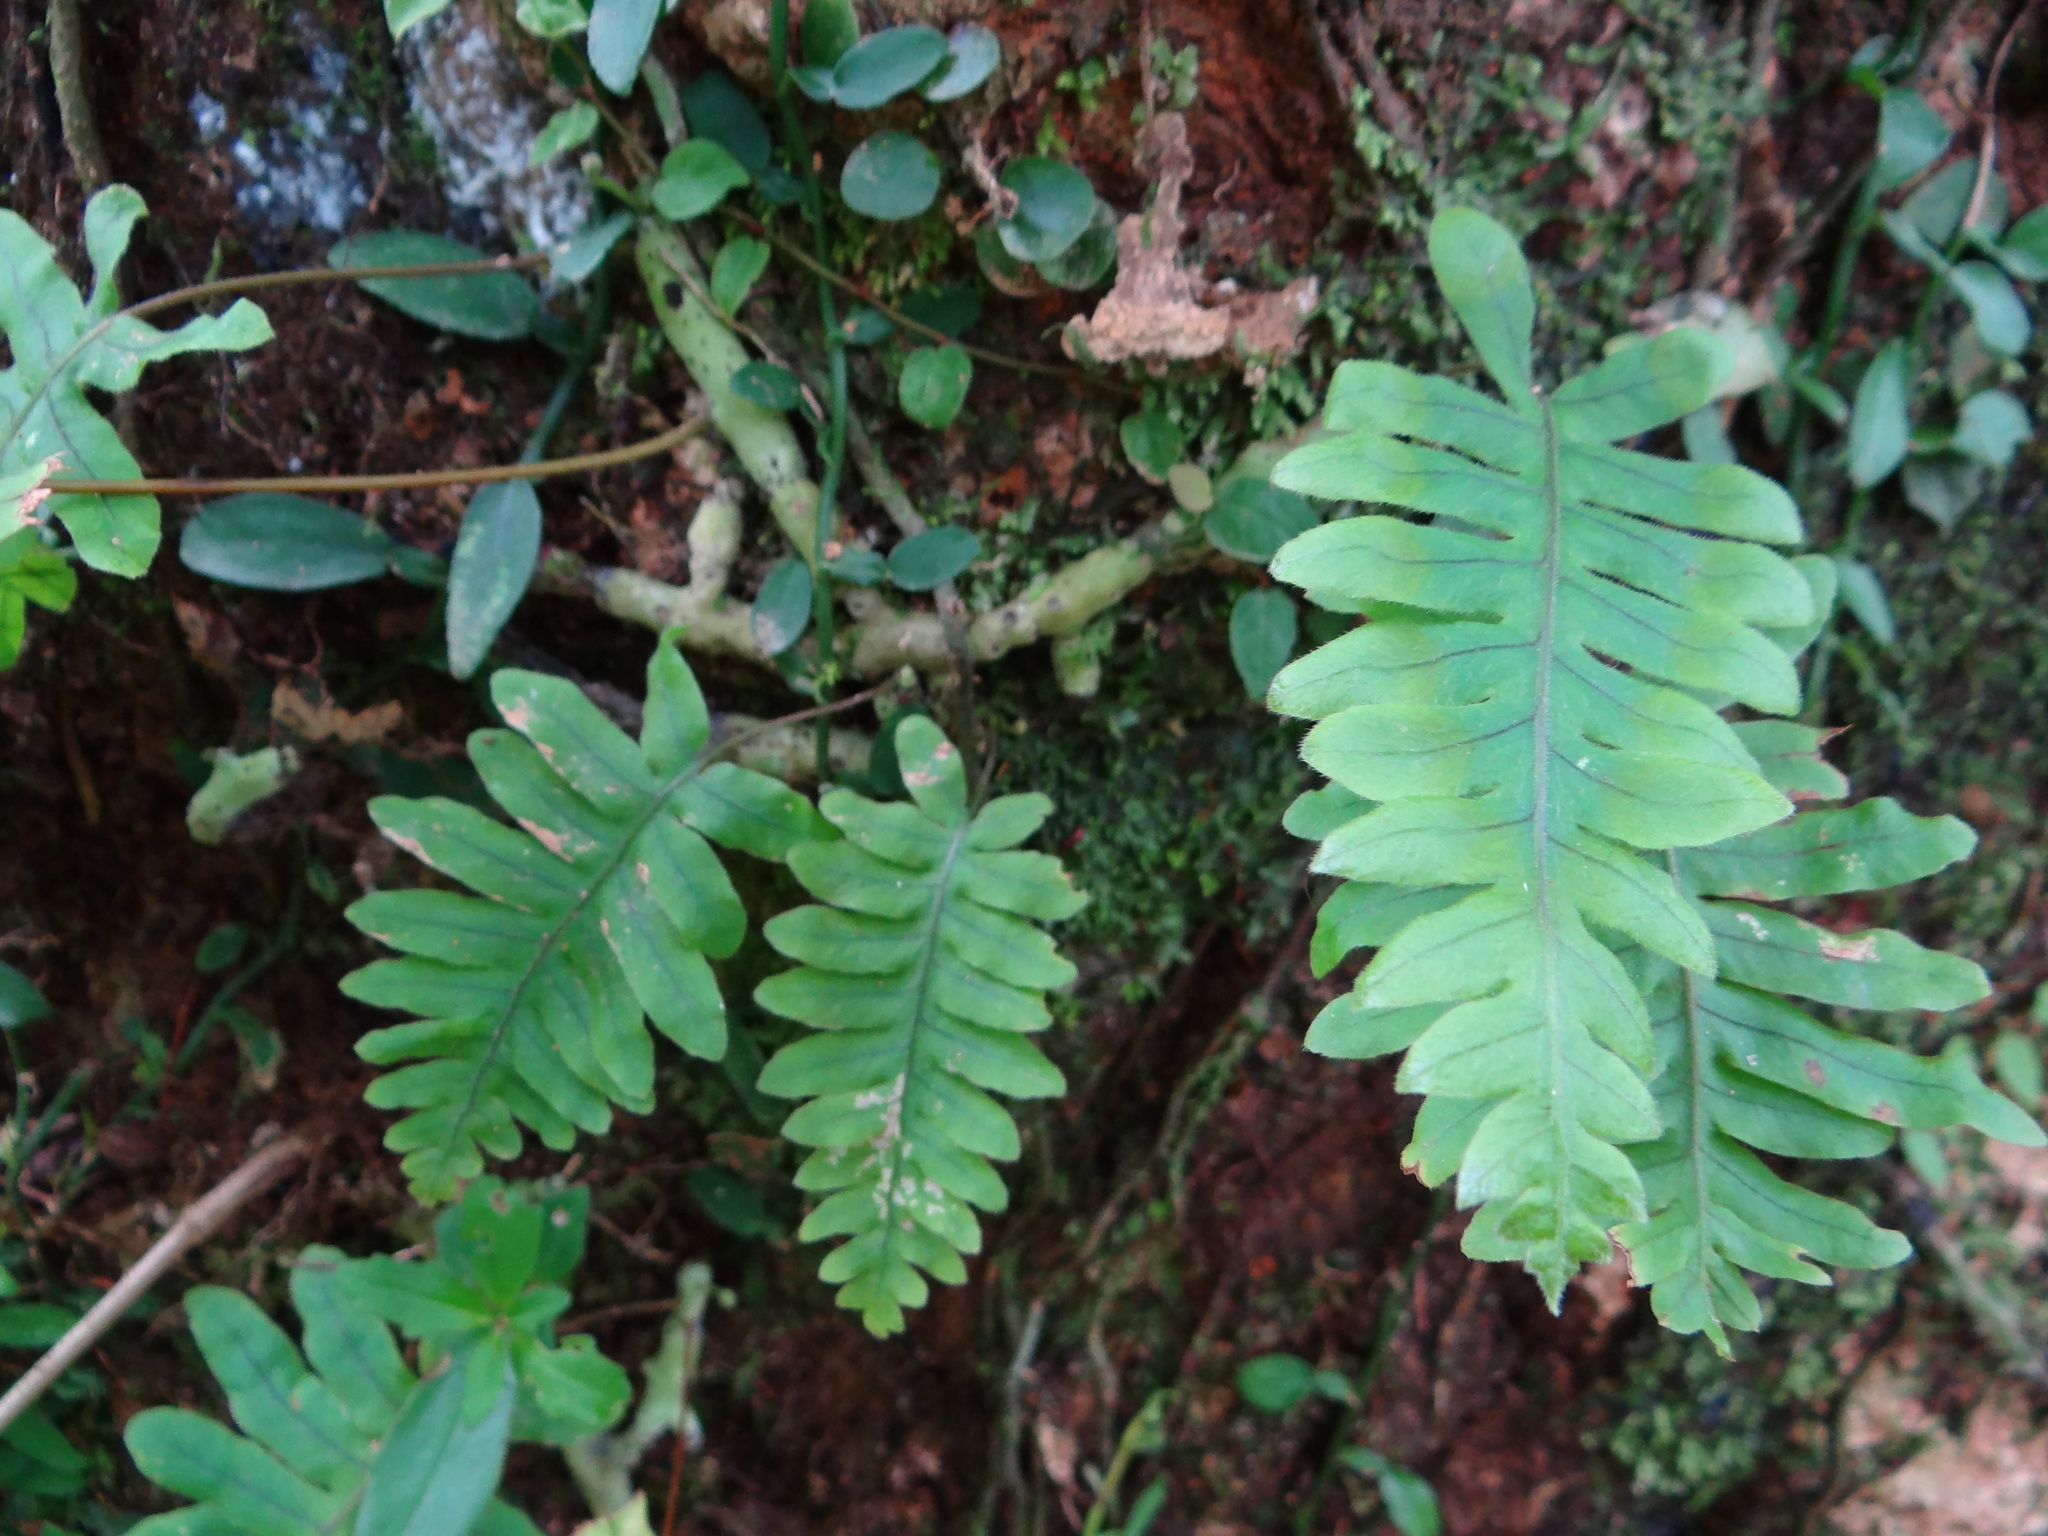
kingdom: Plantae
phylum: Tracheophyta
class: Polypodiopsida
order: Polypodiales
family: Polypodiaceae
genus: Goniophlebium
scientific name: Goniophlebium formosanum
